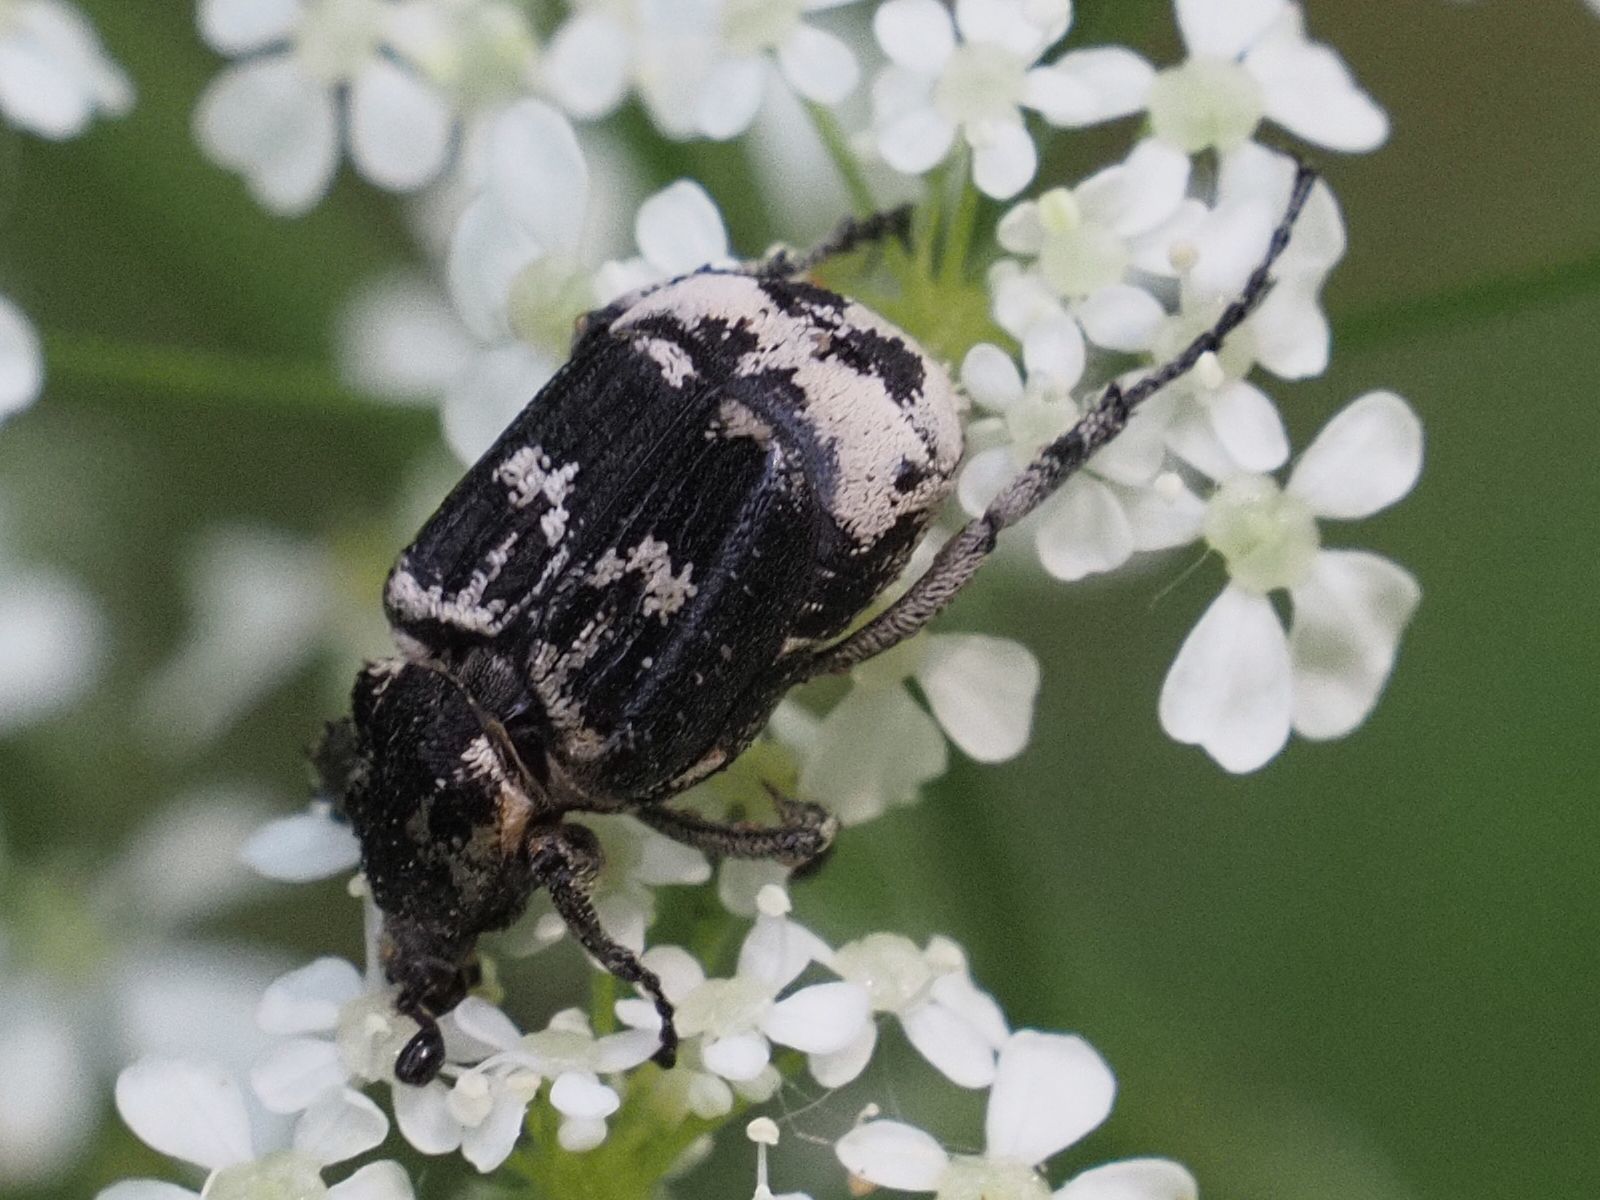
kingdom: Animalia
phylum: Arthropoda
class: Insecta
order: Coleoptera
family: Scarabaeidae
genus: Valgus
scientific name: Valgus hemipterus
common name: Bug flower chafer
